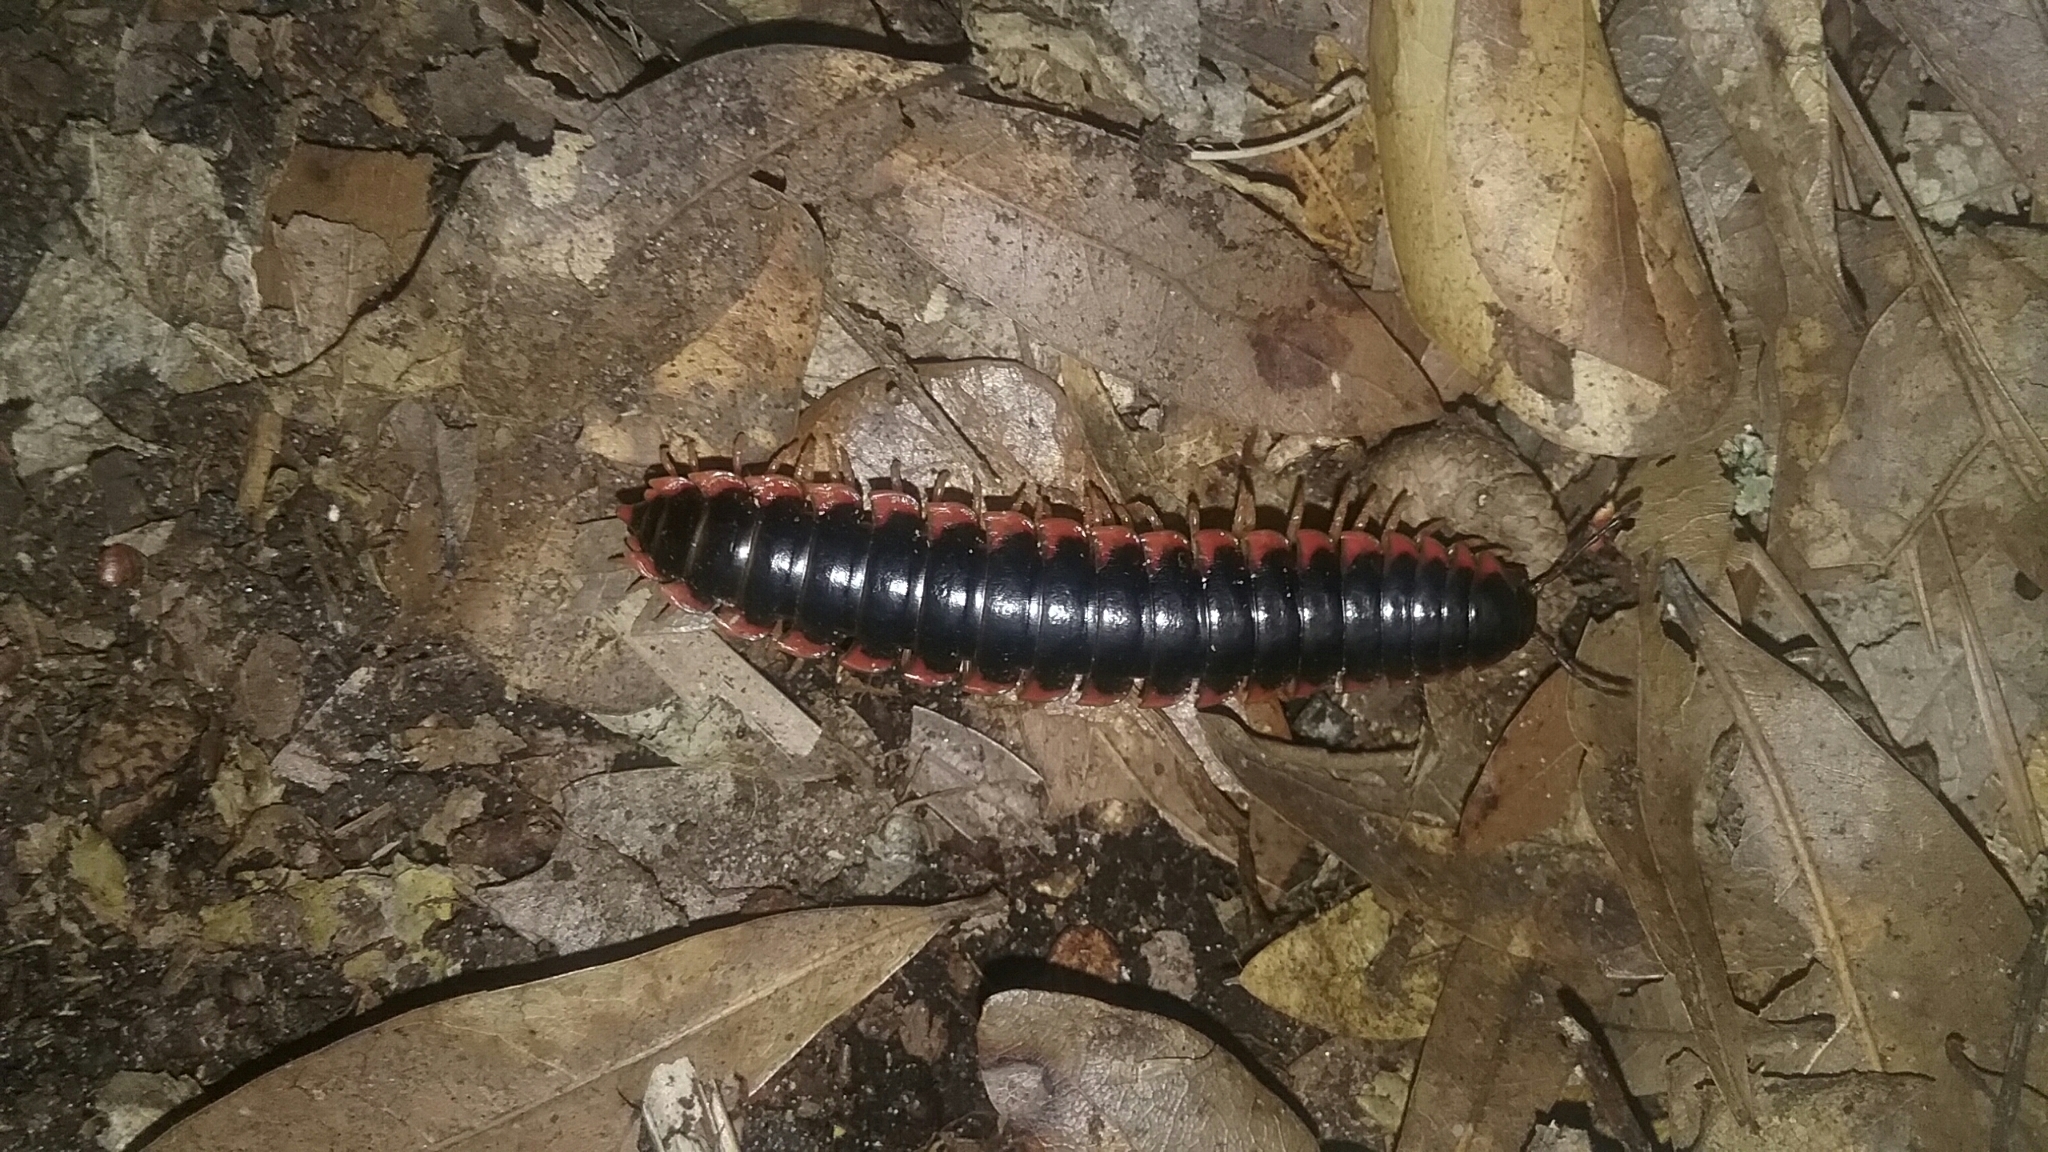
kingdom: Animalia
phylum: Arthropoda
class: Diplopoda
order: Polydesmida
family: Xystodesmidae
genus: Sigmoria
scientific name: Sigmoria australis
